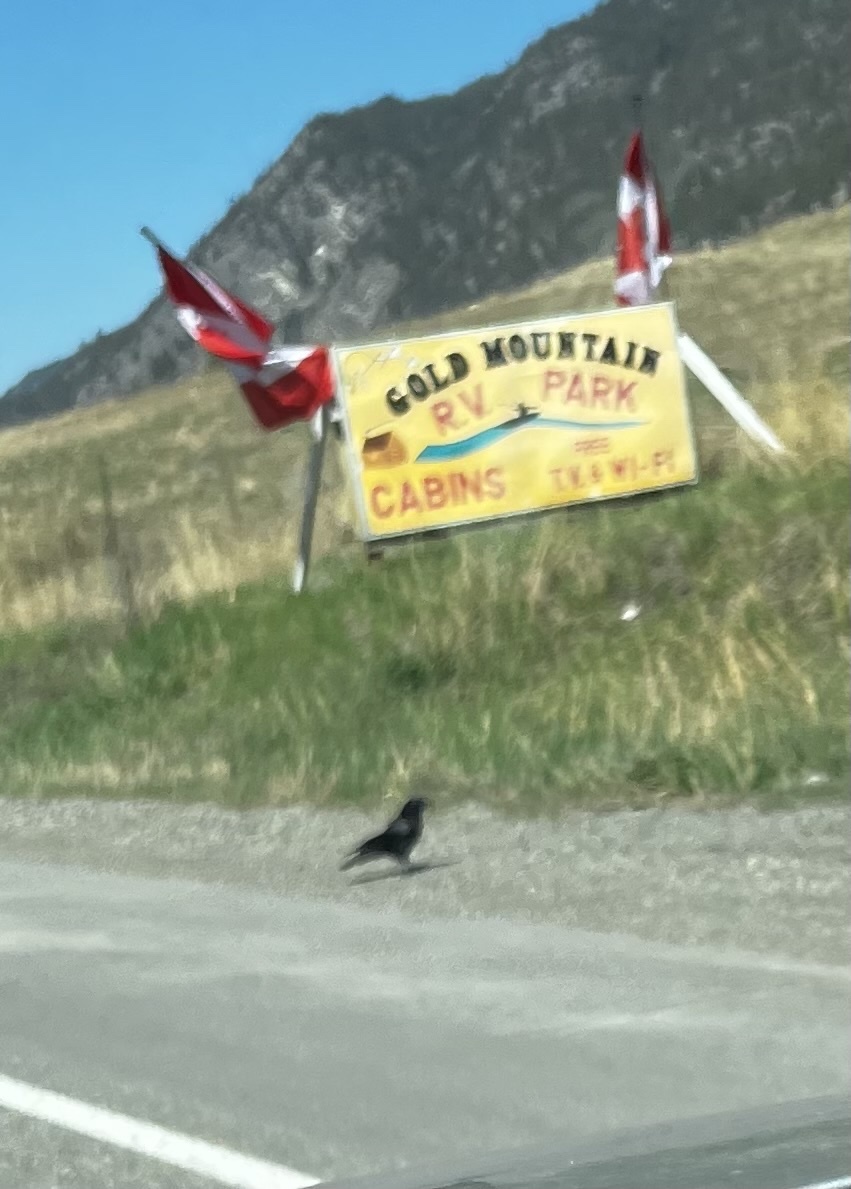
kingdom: Animalia
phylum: Chordata
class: Aves
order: Passeriformes
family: Corvidae
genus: Corvus
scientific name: Corvus brachyrhynchos
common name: American crow
